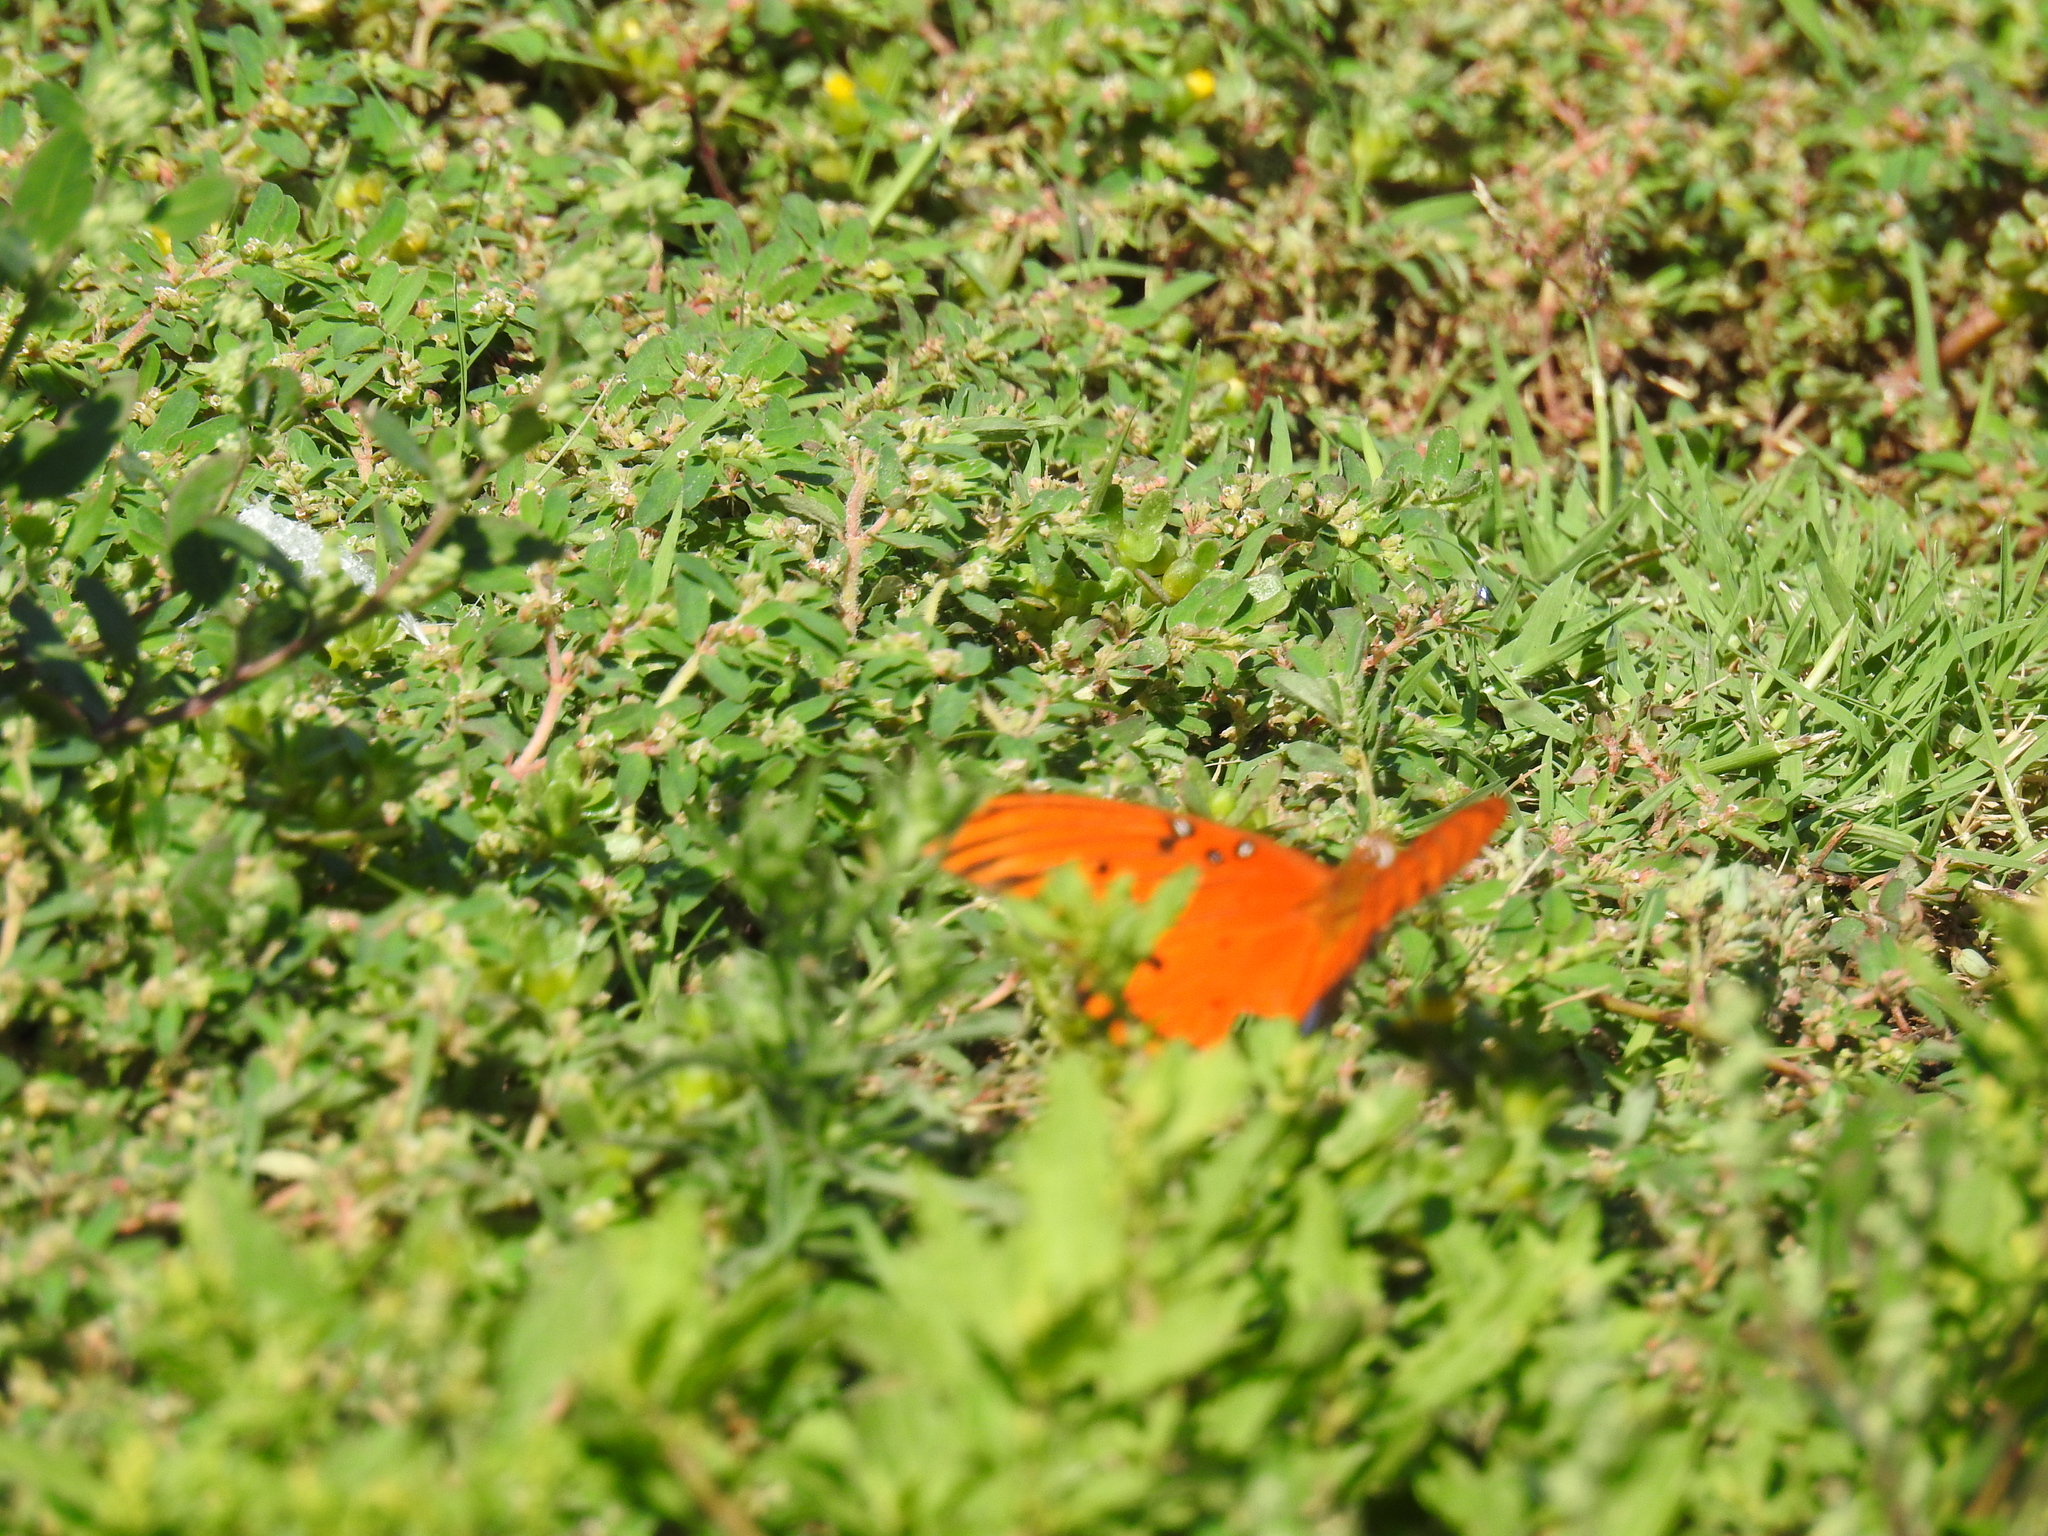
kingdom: Animalia
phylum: Arthropoda
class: Insecta
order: Lepidoptera
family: Nymphalidae
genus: Dione
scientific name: Dione vanillae
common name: Gulf fritillary
